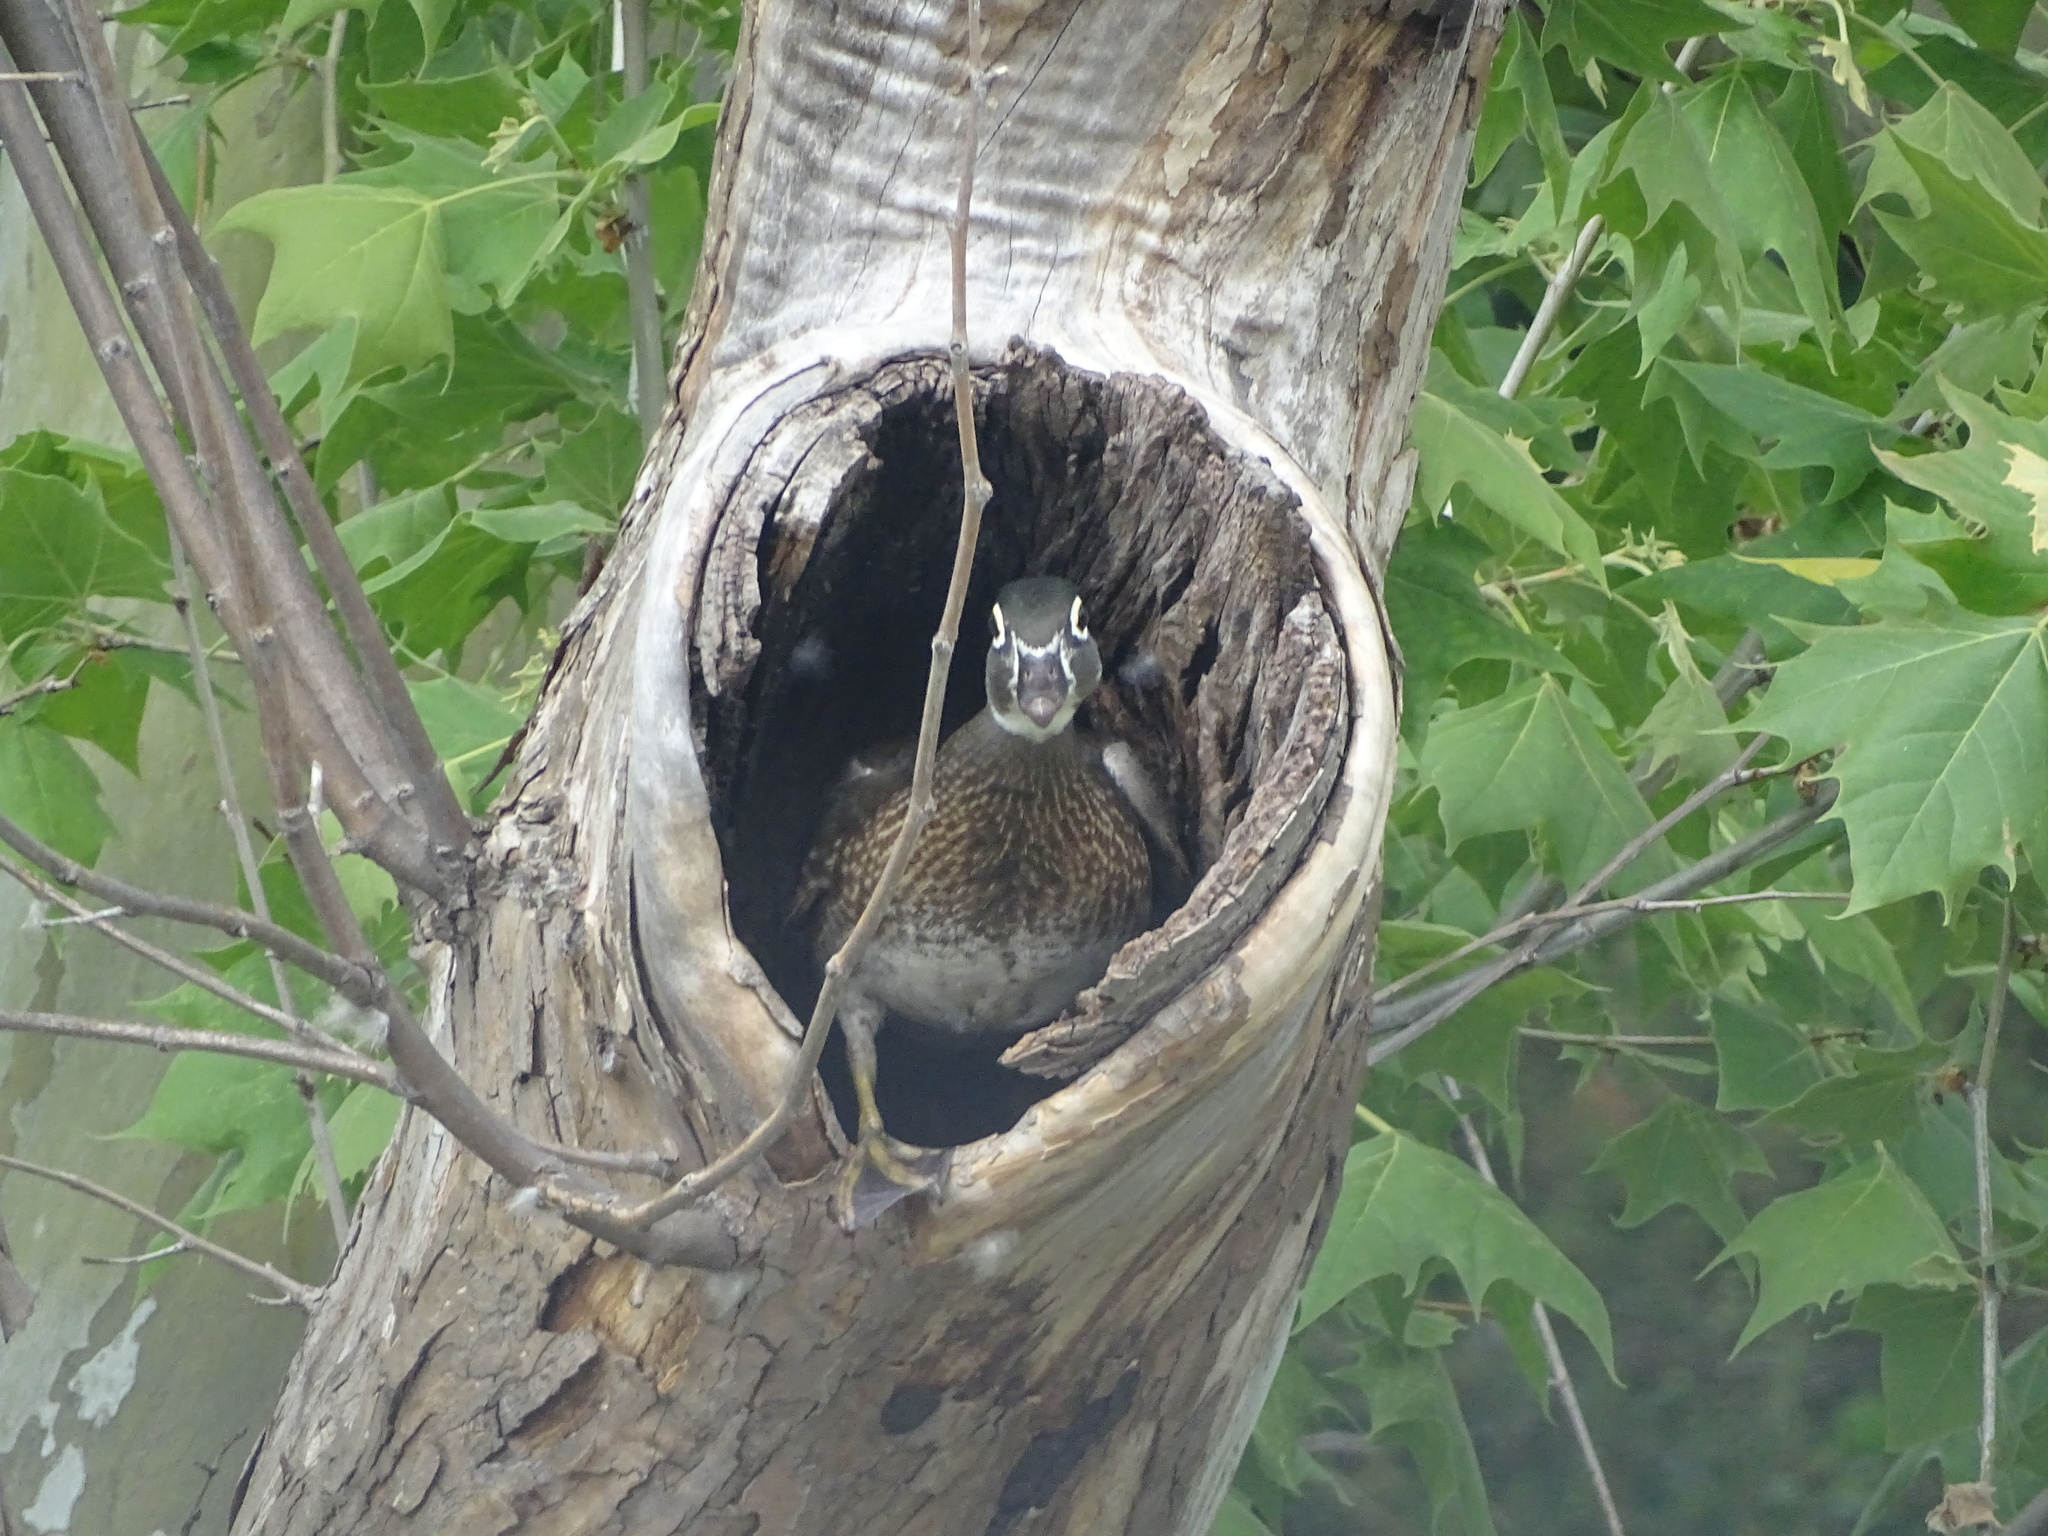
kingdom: Animalia
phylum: Chordata
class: Aves
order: Anseriformes
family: Anatidae
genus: Aix
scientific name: Aix sponsa
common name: Wood duck
